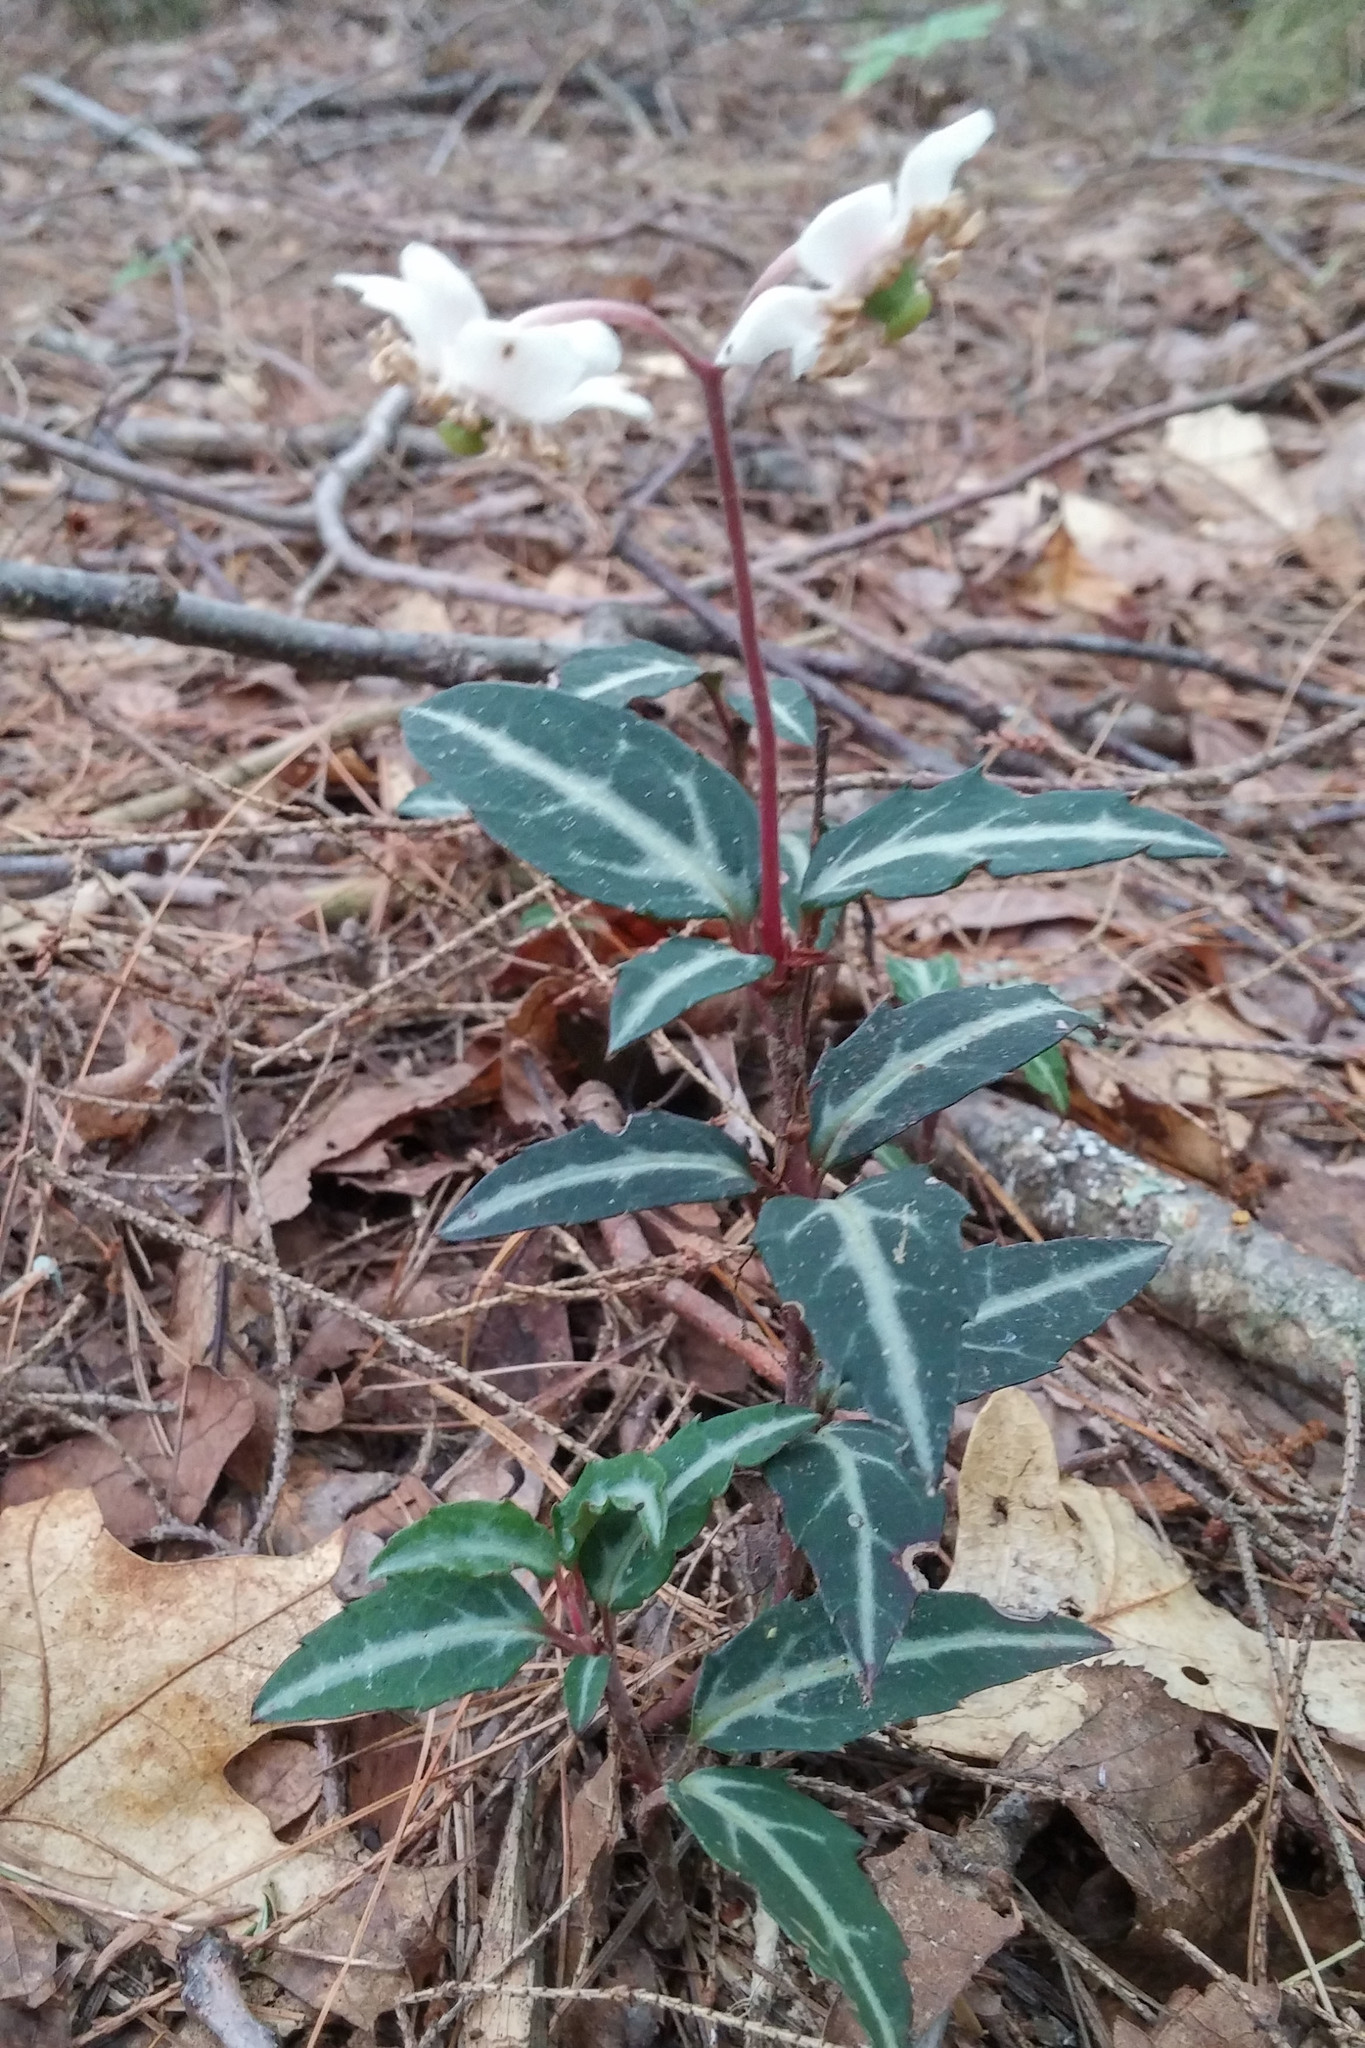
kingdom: Plantae
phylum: Tracheophyta
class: Magnoliopsida
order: Ericales
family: Ericaceae
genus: Chimaphila
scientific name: Chimaphila maculata
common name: Spotted pipsissewa
